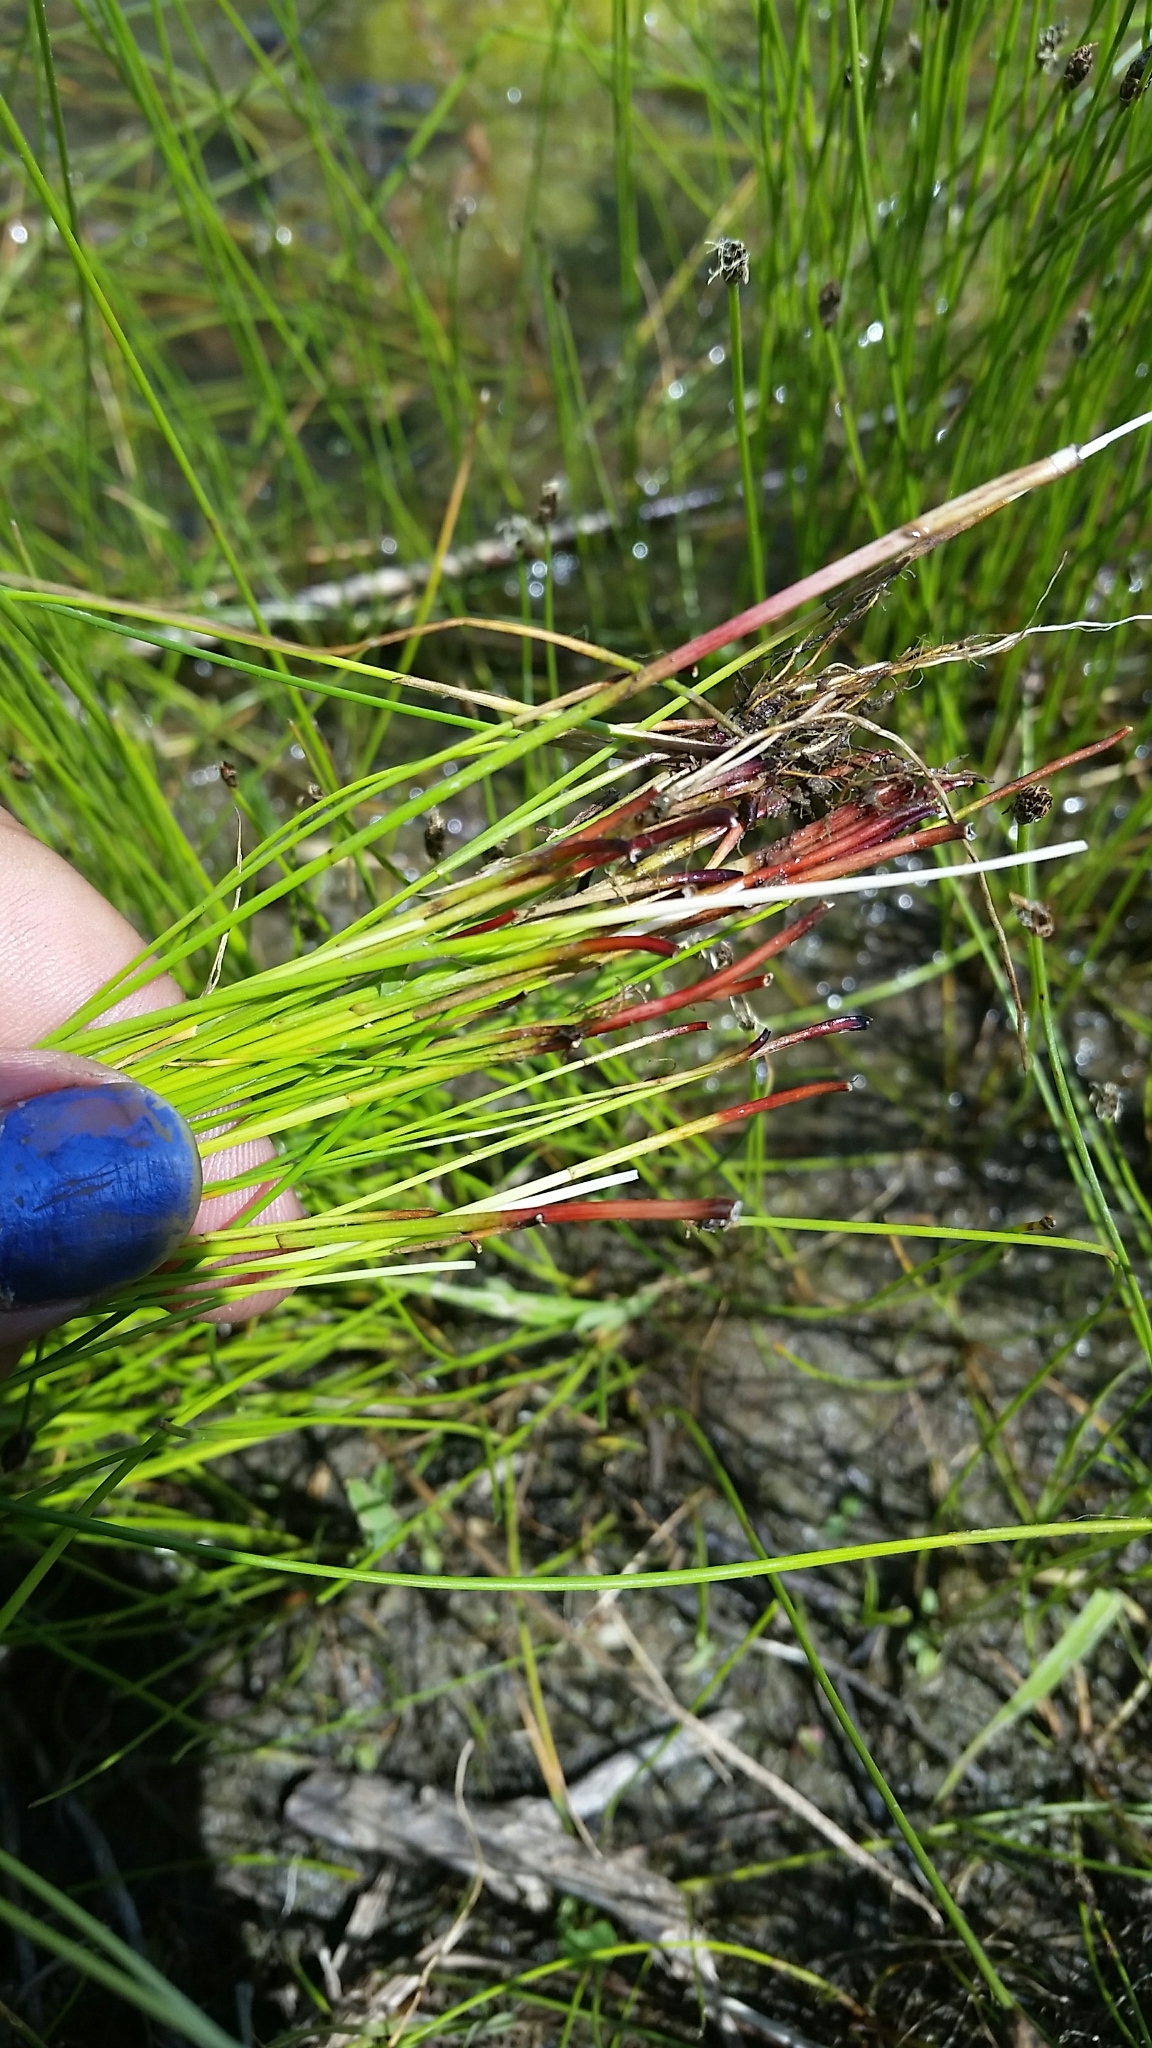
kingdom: Plantae
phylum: Tracheophyta
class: Liliopsida
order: Poales
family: Cyperaceae
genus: Eleocharis
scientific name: Eleocharis erythropoda
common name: Bald spikerush
